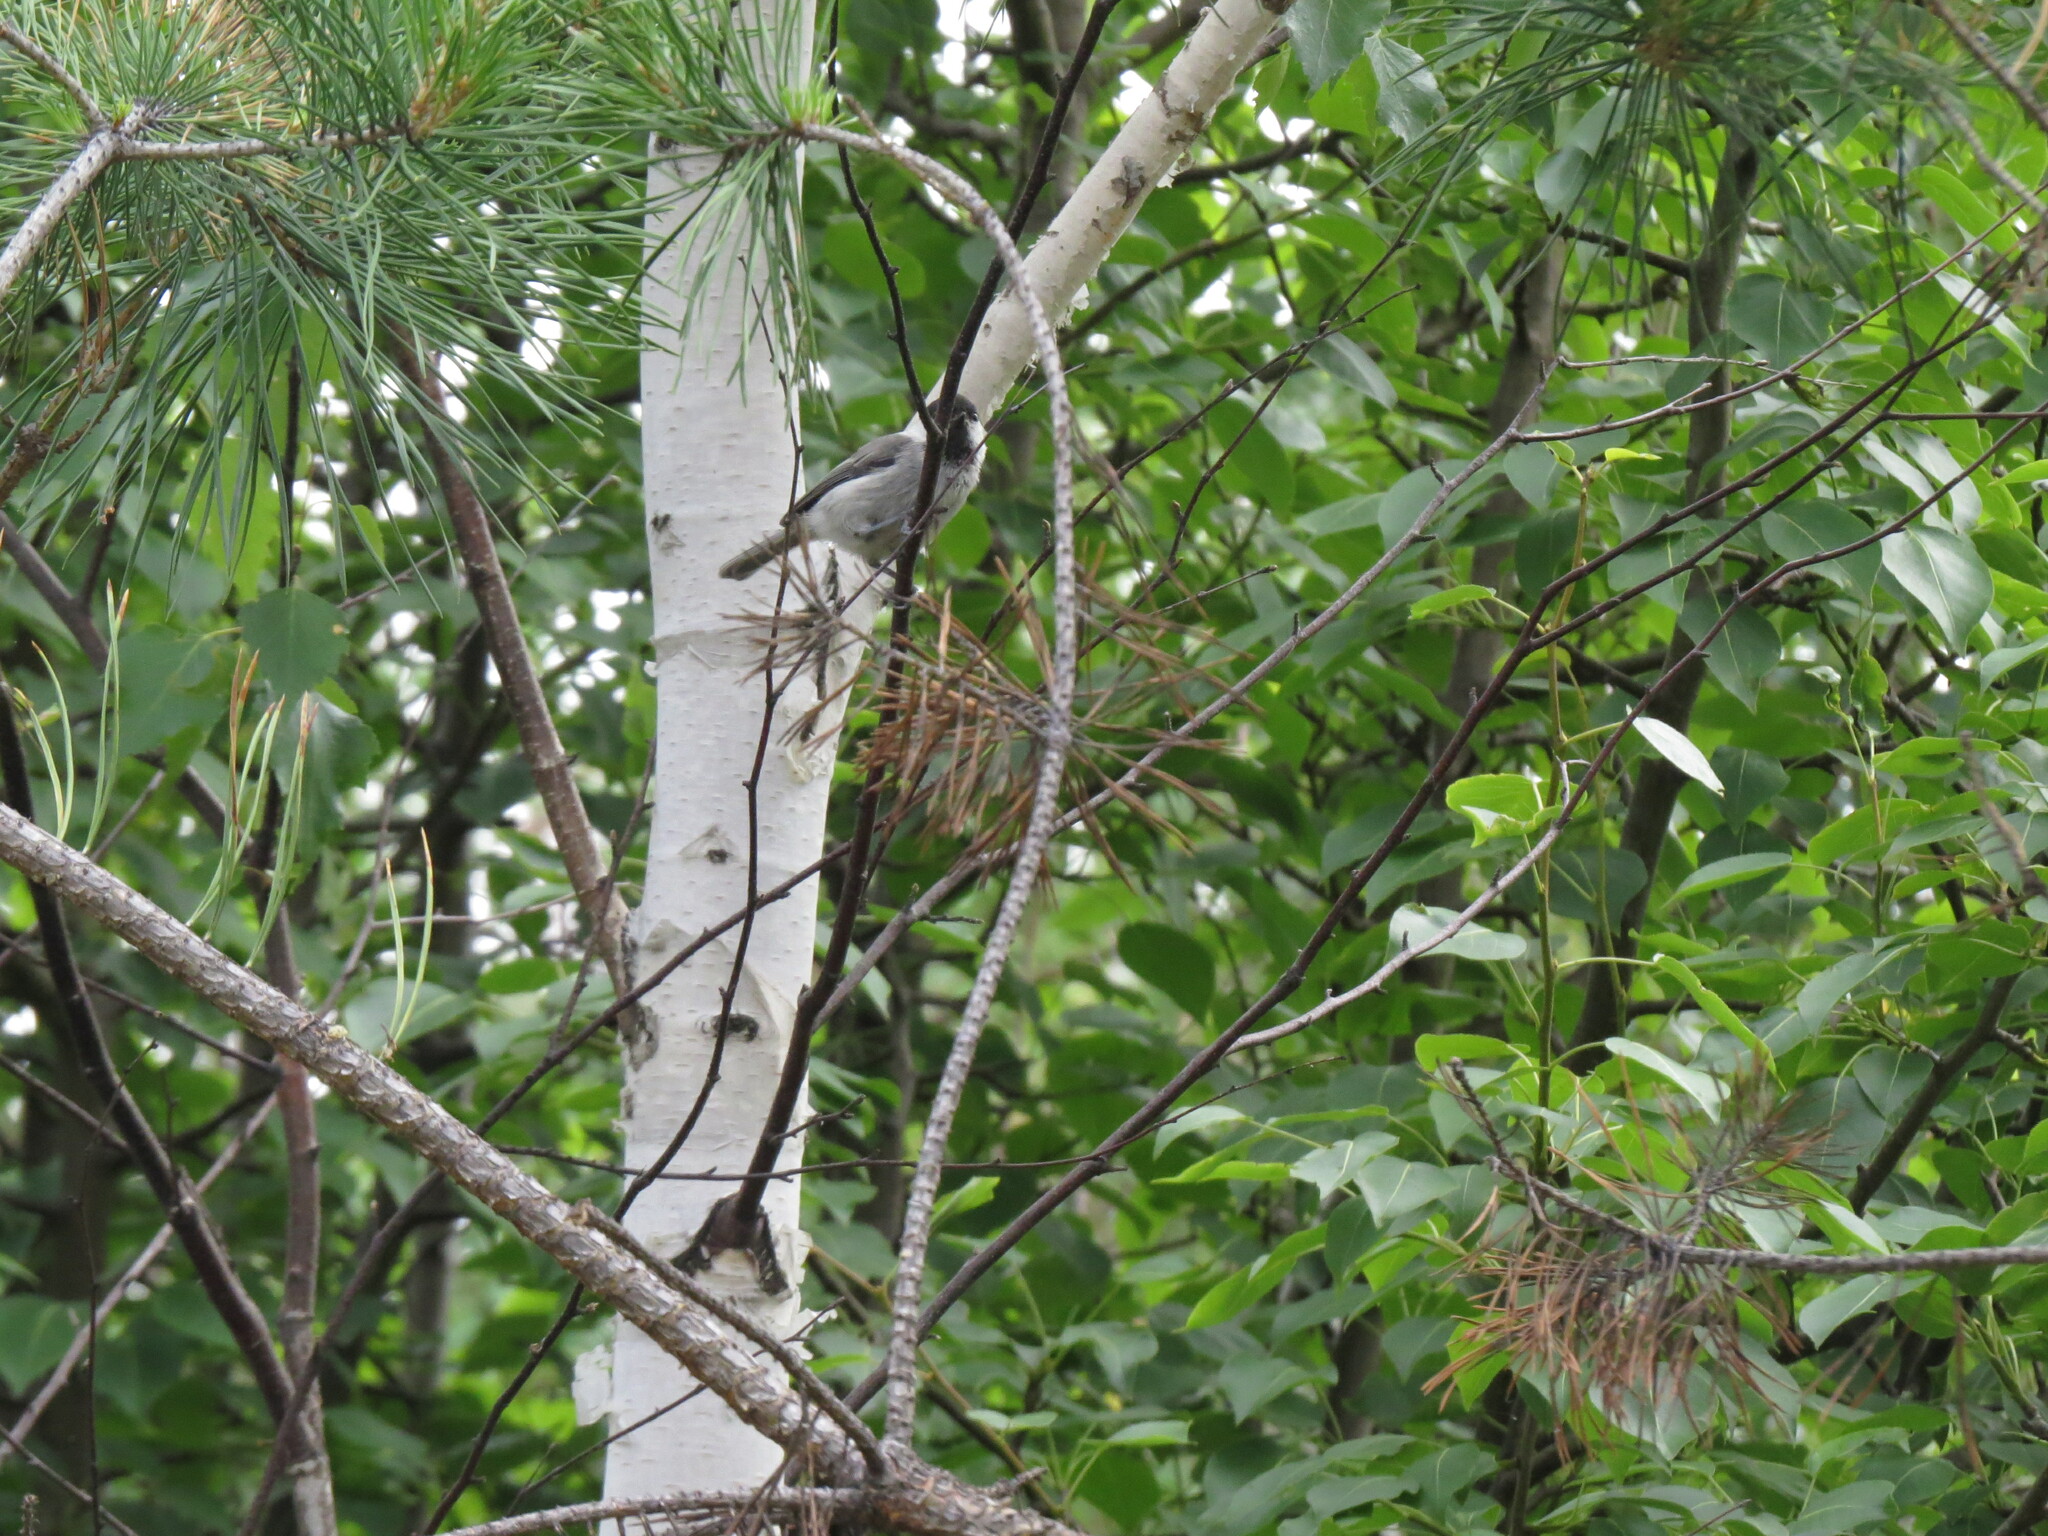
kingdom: Animalia
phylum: Chordata
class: Aves
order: Passeriformes
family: Paridae
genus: Poecile
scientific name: Poecile montanus
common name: Willow tit
